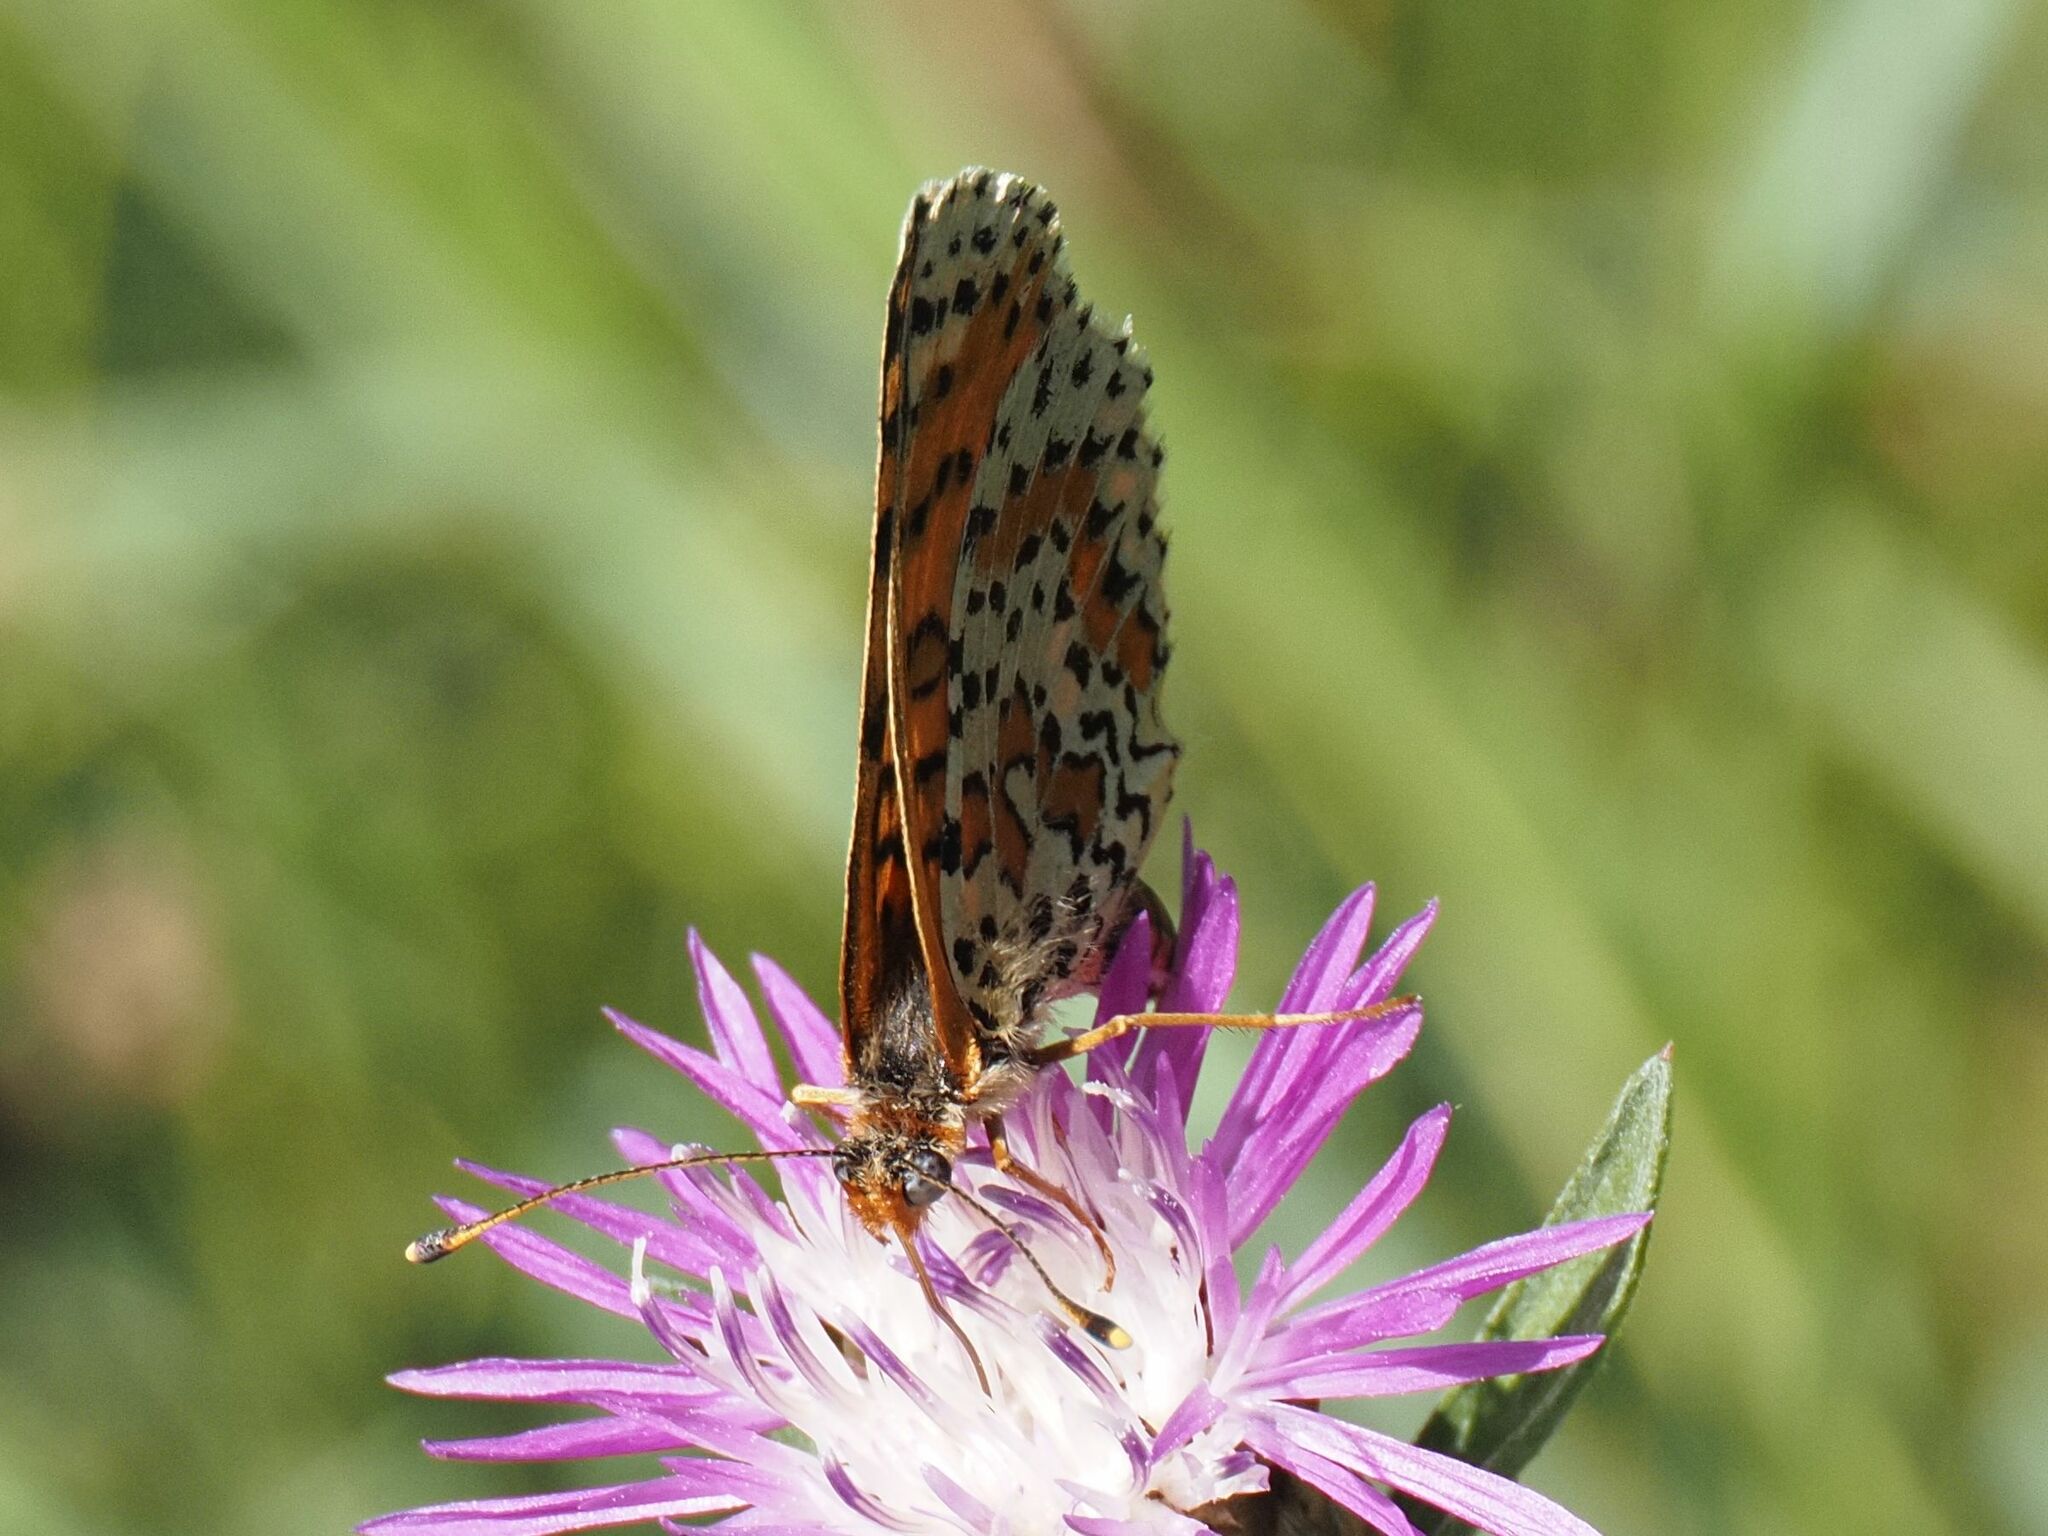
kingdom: Animalia
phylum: Arthropoda
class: Insecta
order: Lepidoptera
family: Nymphalidae
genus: Melitaea
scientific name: Melitaea didyma
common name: Spotted fritillary
